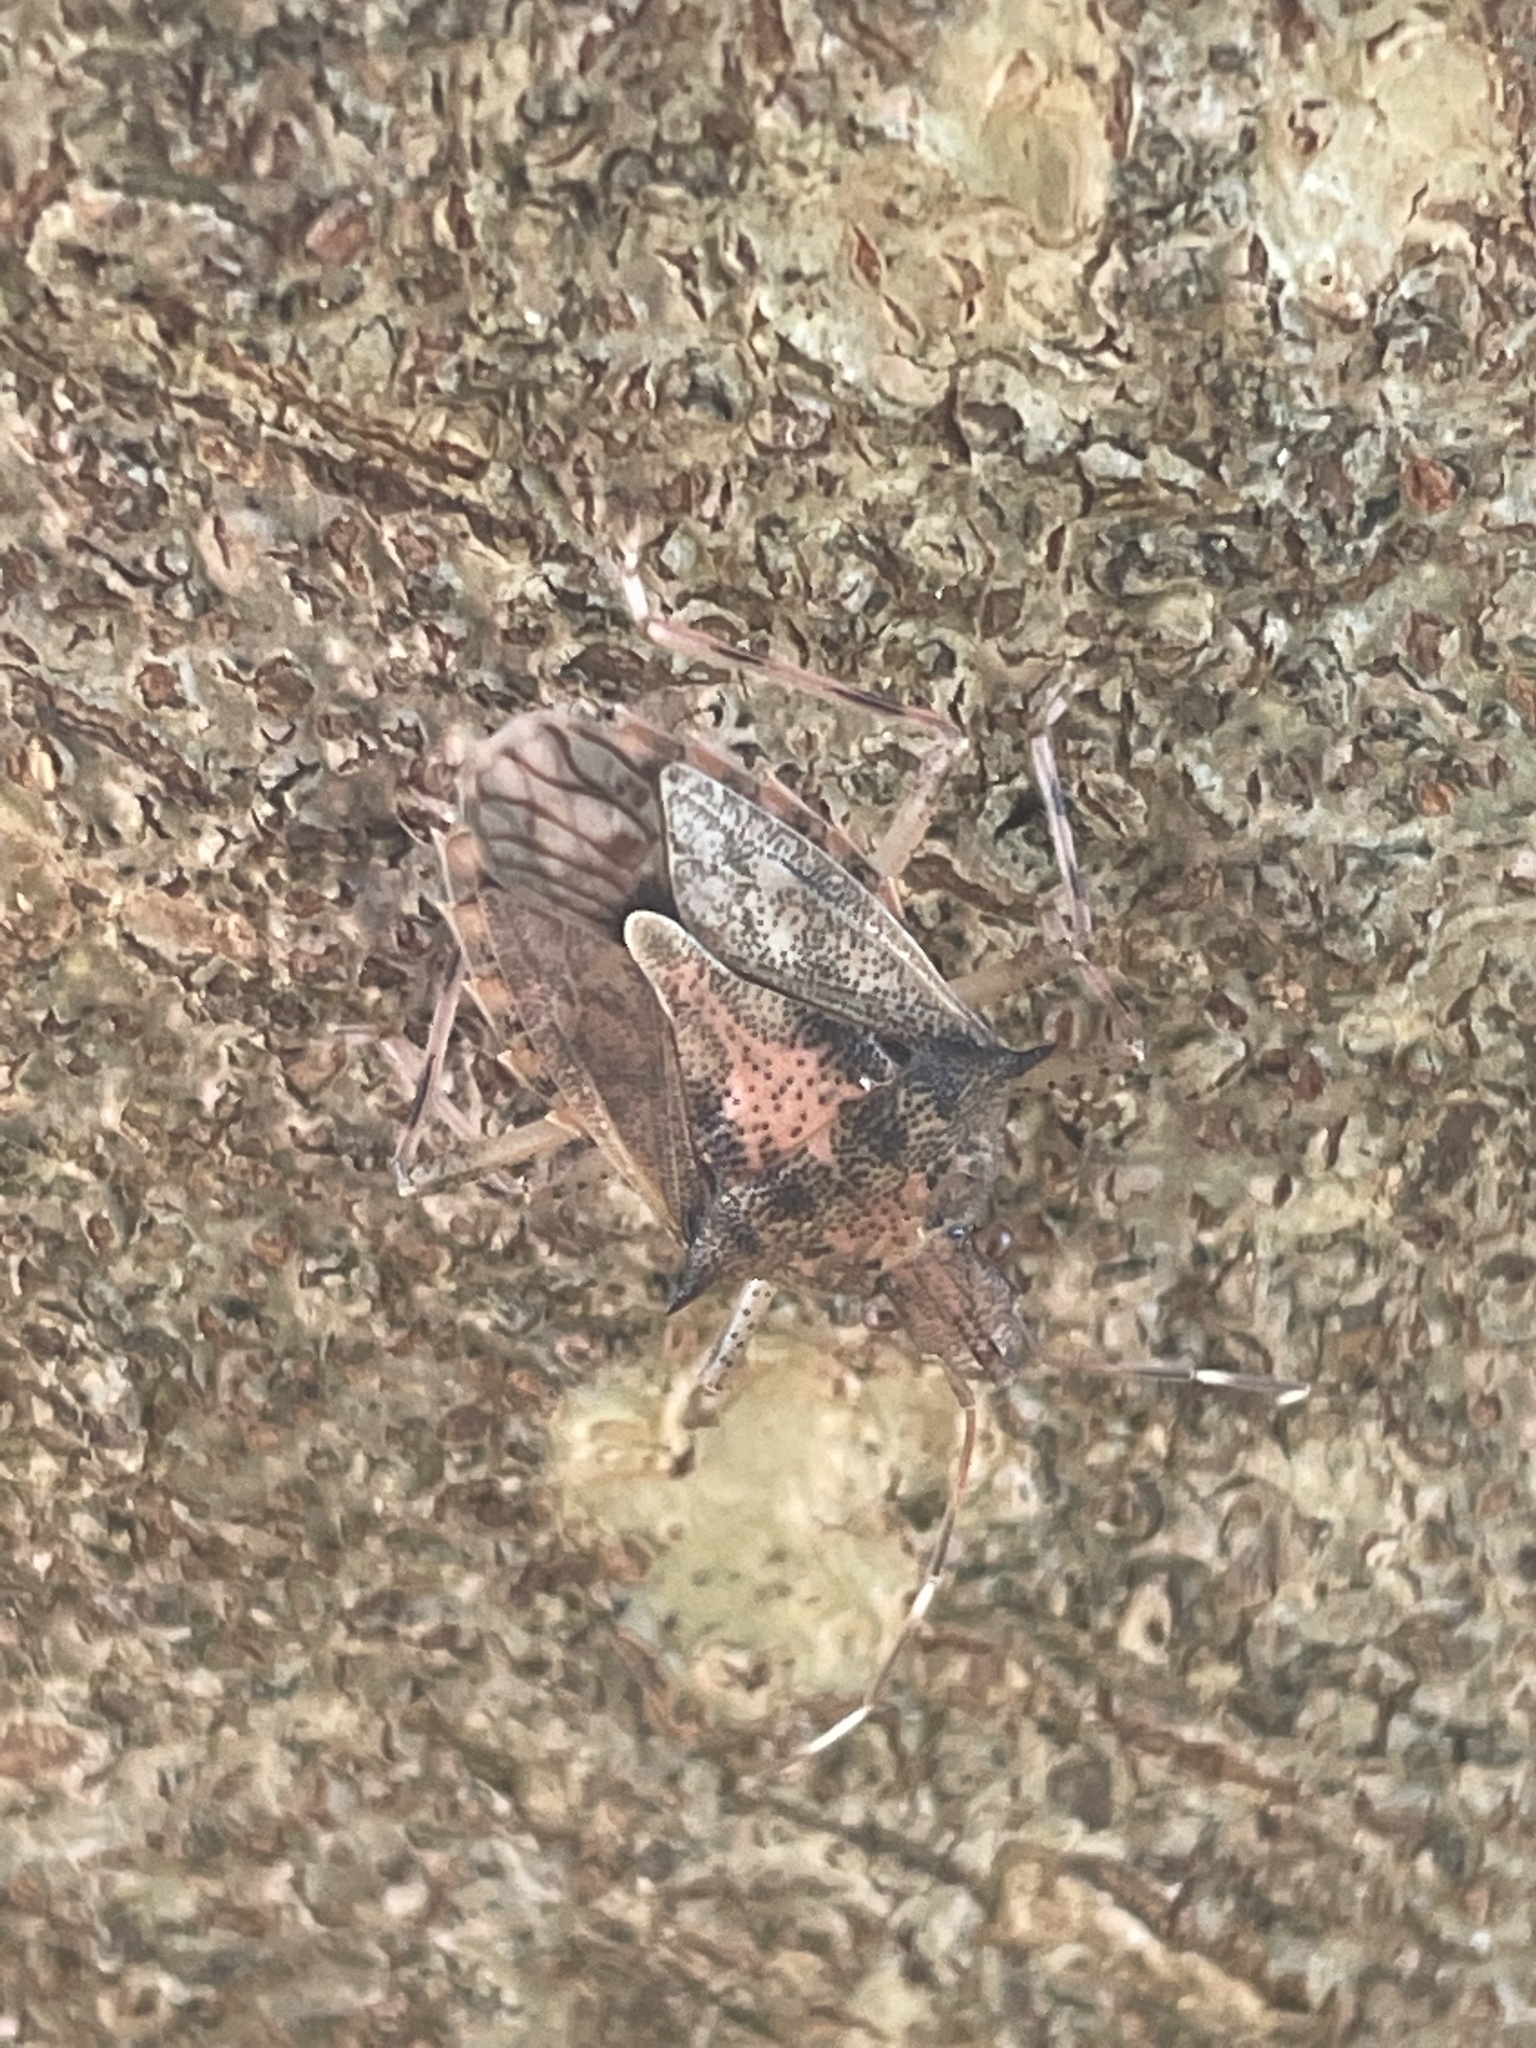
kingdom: Animalia
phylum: Arthropoda
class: Insecta
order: Hemiptera
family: Pentatomidae
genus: Bromocoris
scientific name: Bromocoris
